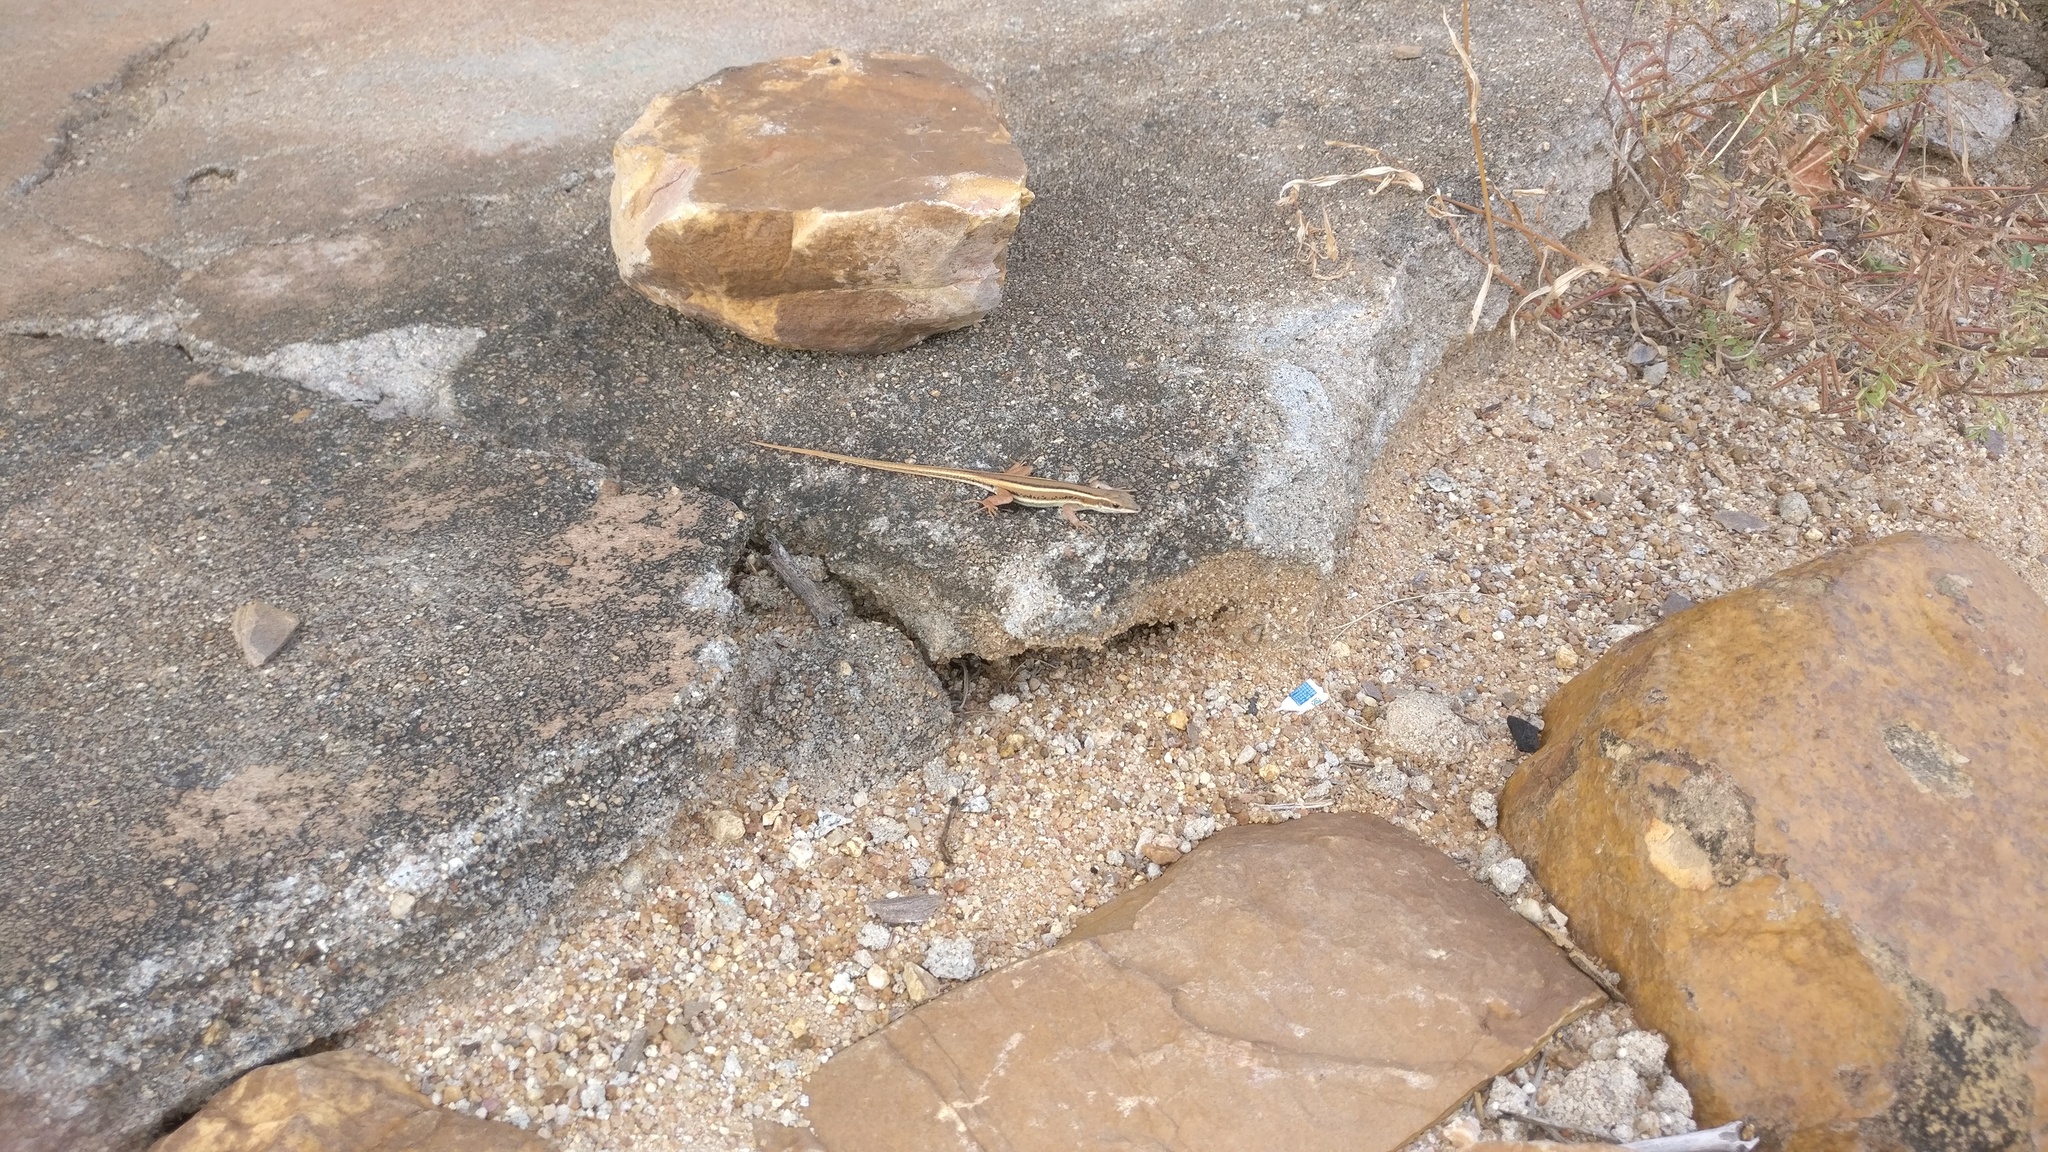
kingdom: Animalia
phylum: Chordata
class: Squamata
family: Lacertidae
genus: Ophisops
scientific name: Ophisops leschenaultii
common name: Leschenault's cabrita
